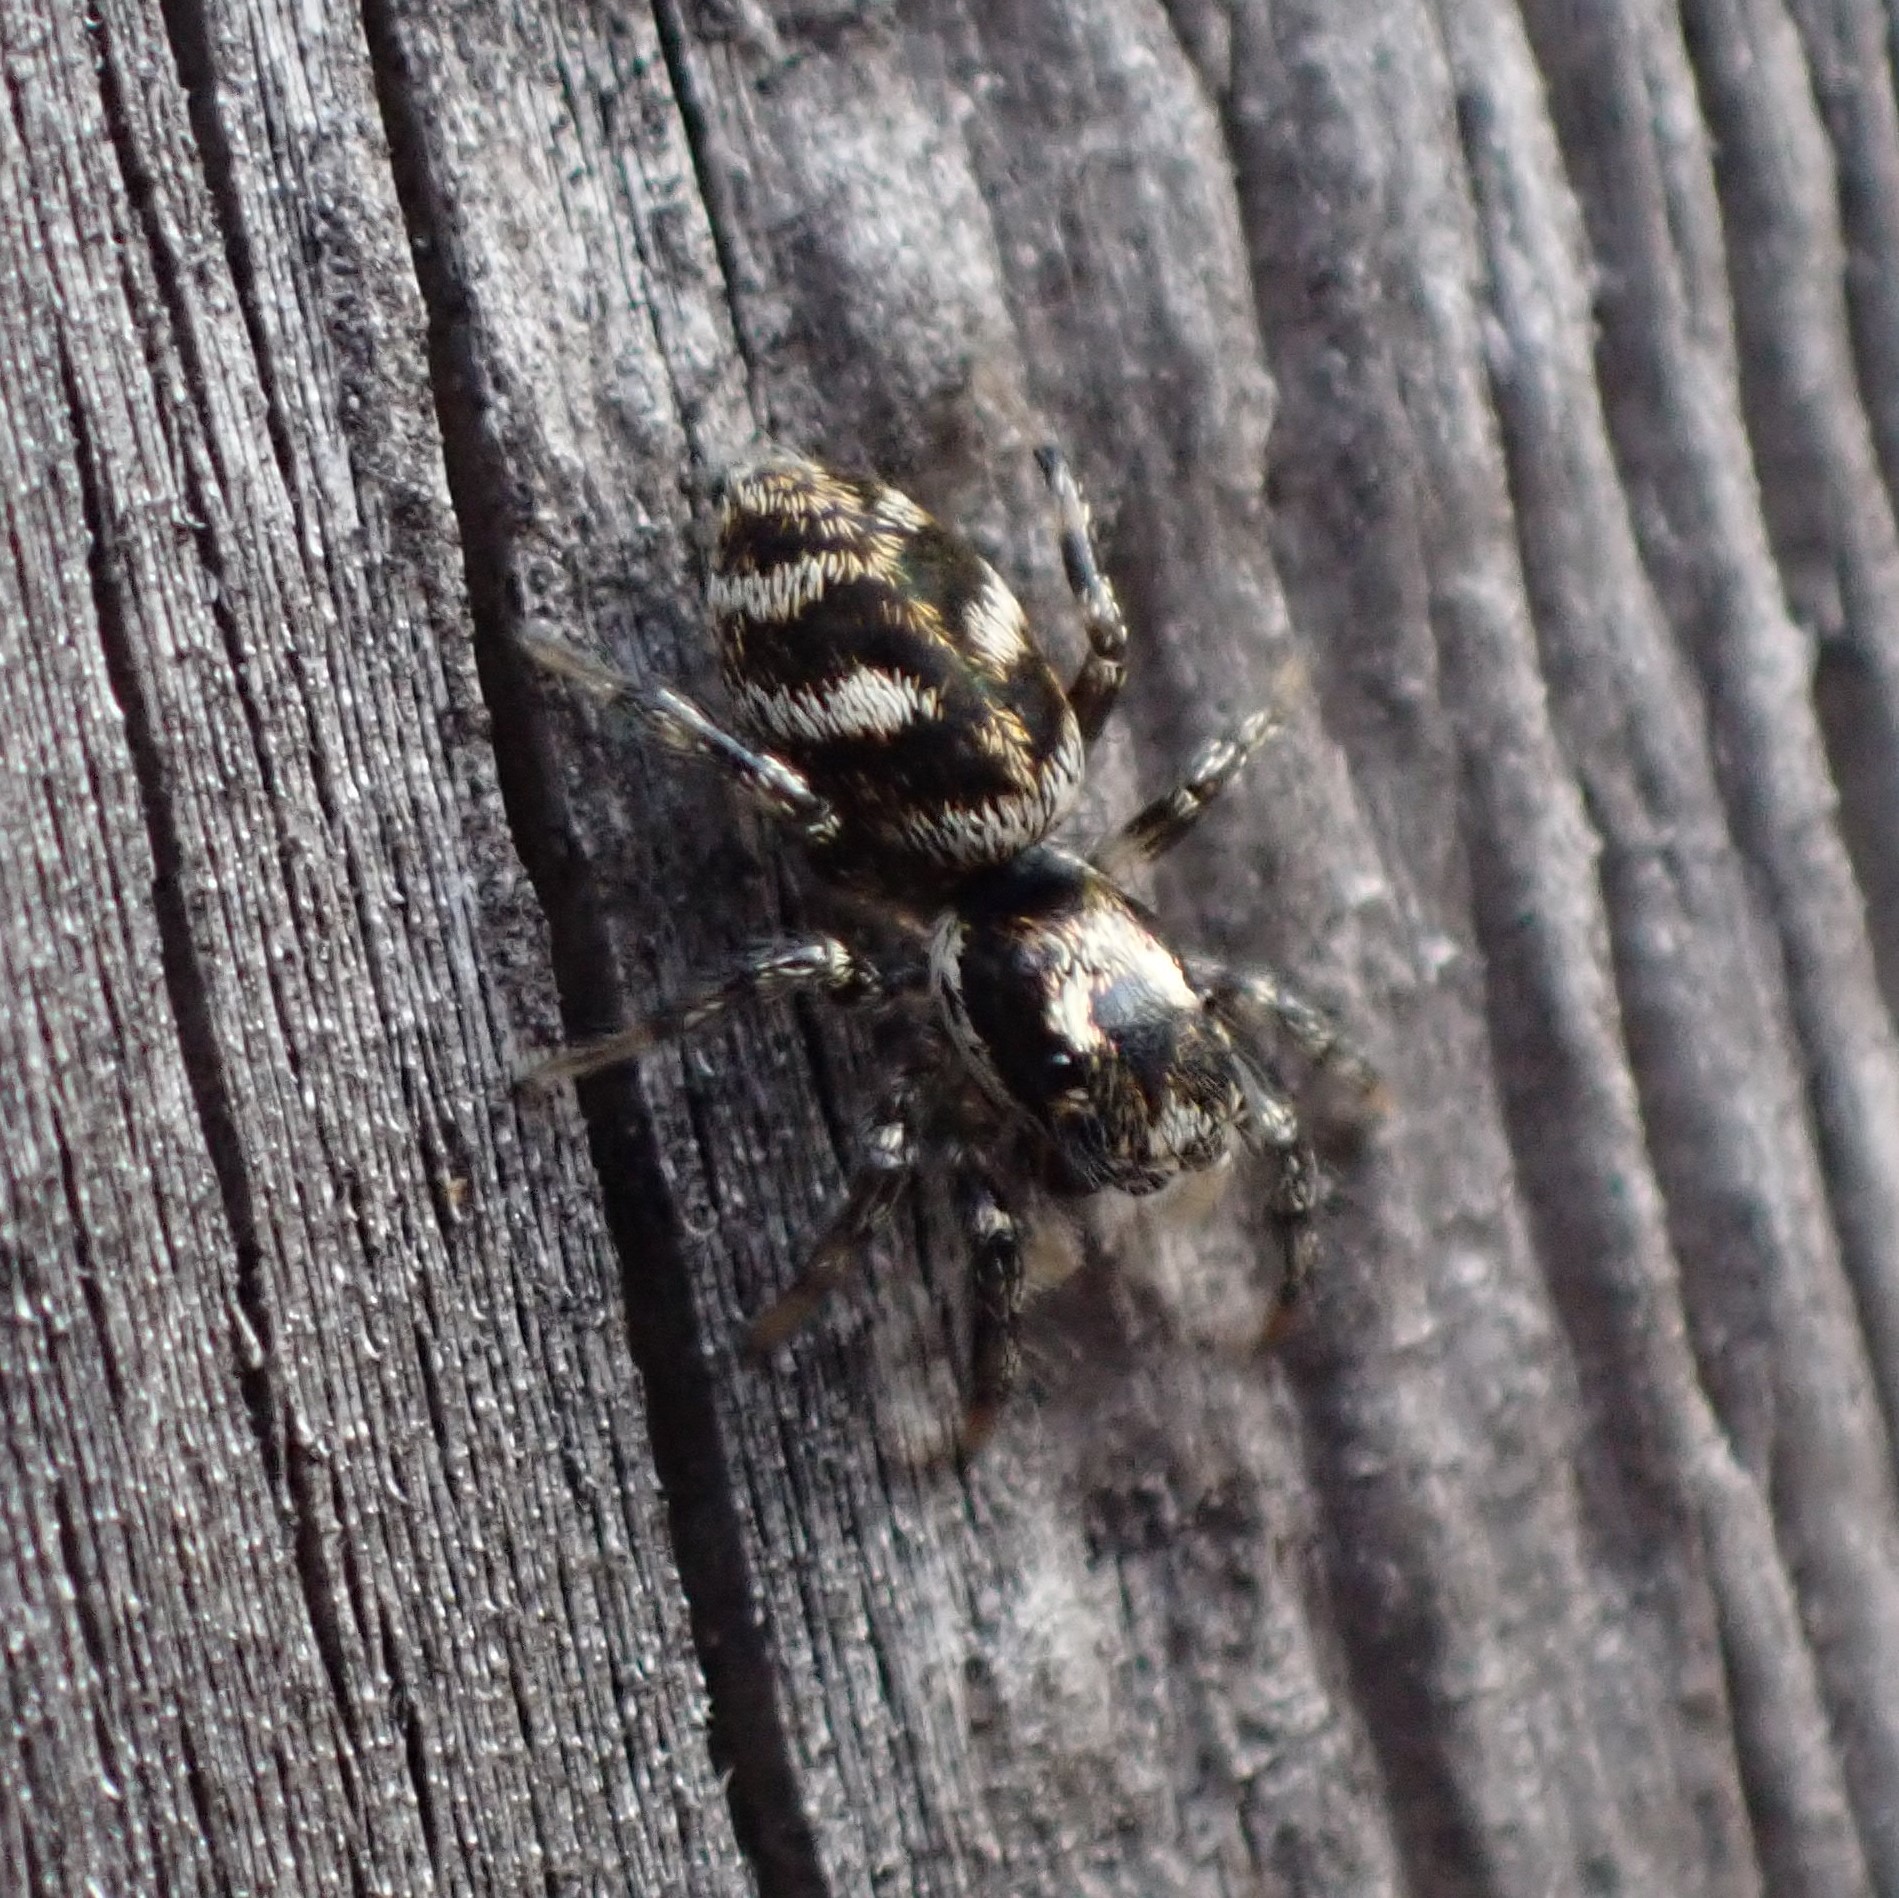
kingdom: Animalia
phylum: Arthropoda
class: Arachnida
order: Araneae
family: Salticidae
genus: Salticus
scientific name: Salticus scenicus
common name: Zebra jumper
